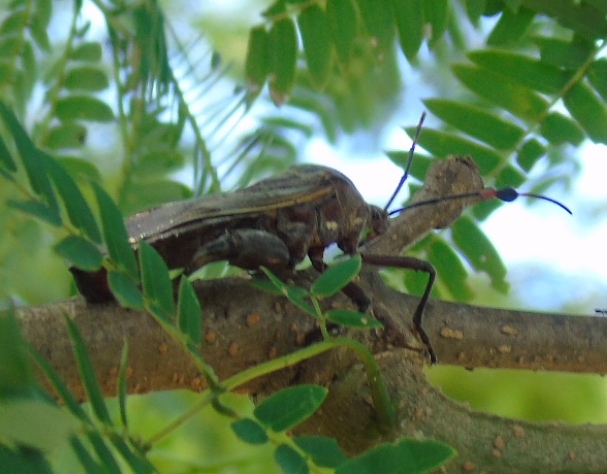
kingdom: Animalia
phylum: Arthropoda
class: Insecta
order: Hemiptera
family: Coreidae
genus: Pachylis
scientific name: Pachylis nervosus
